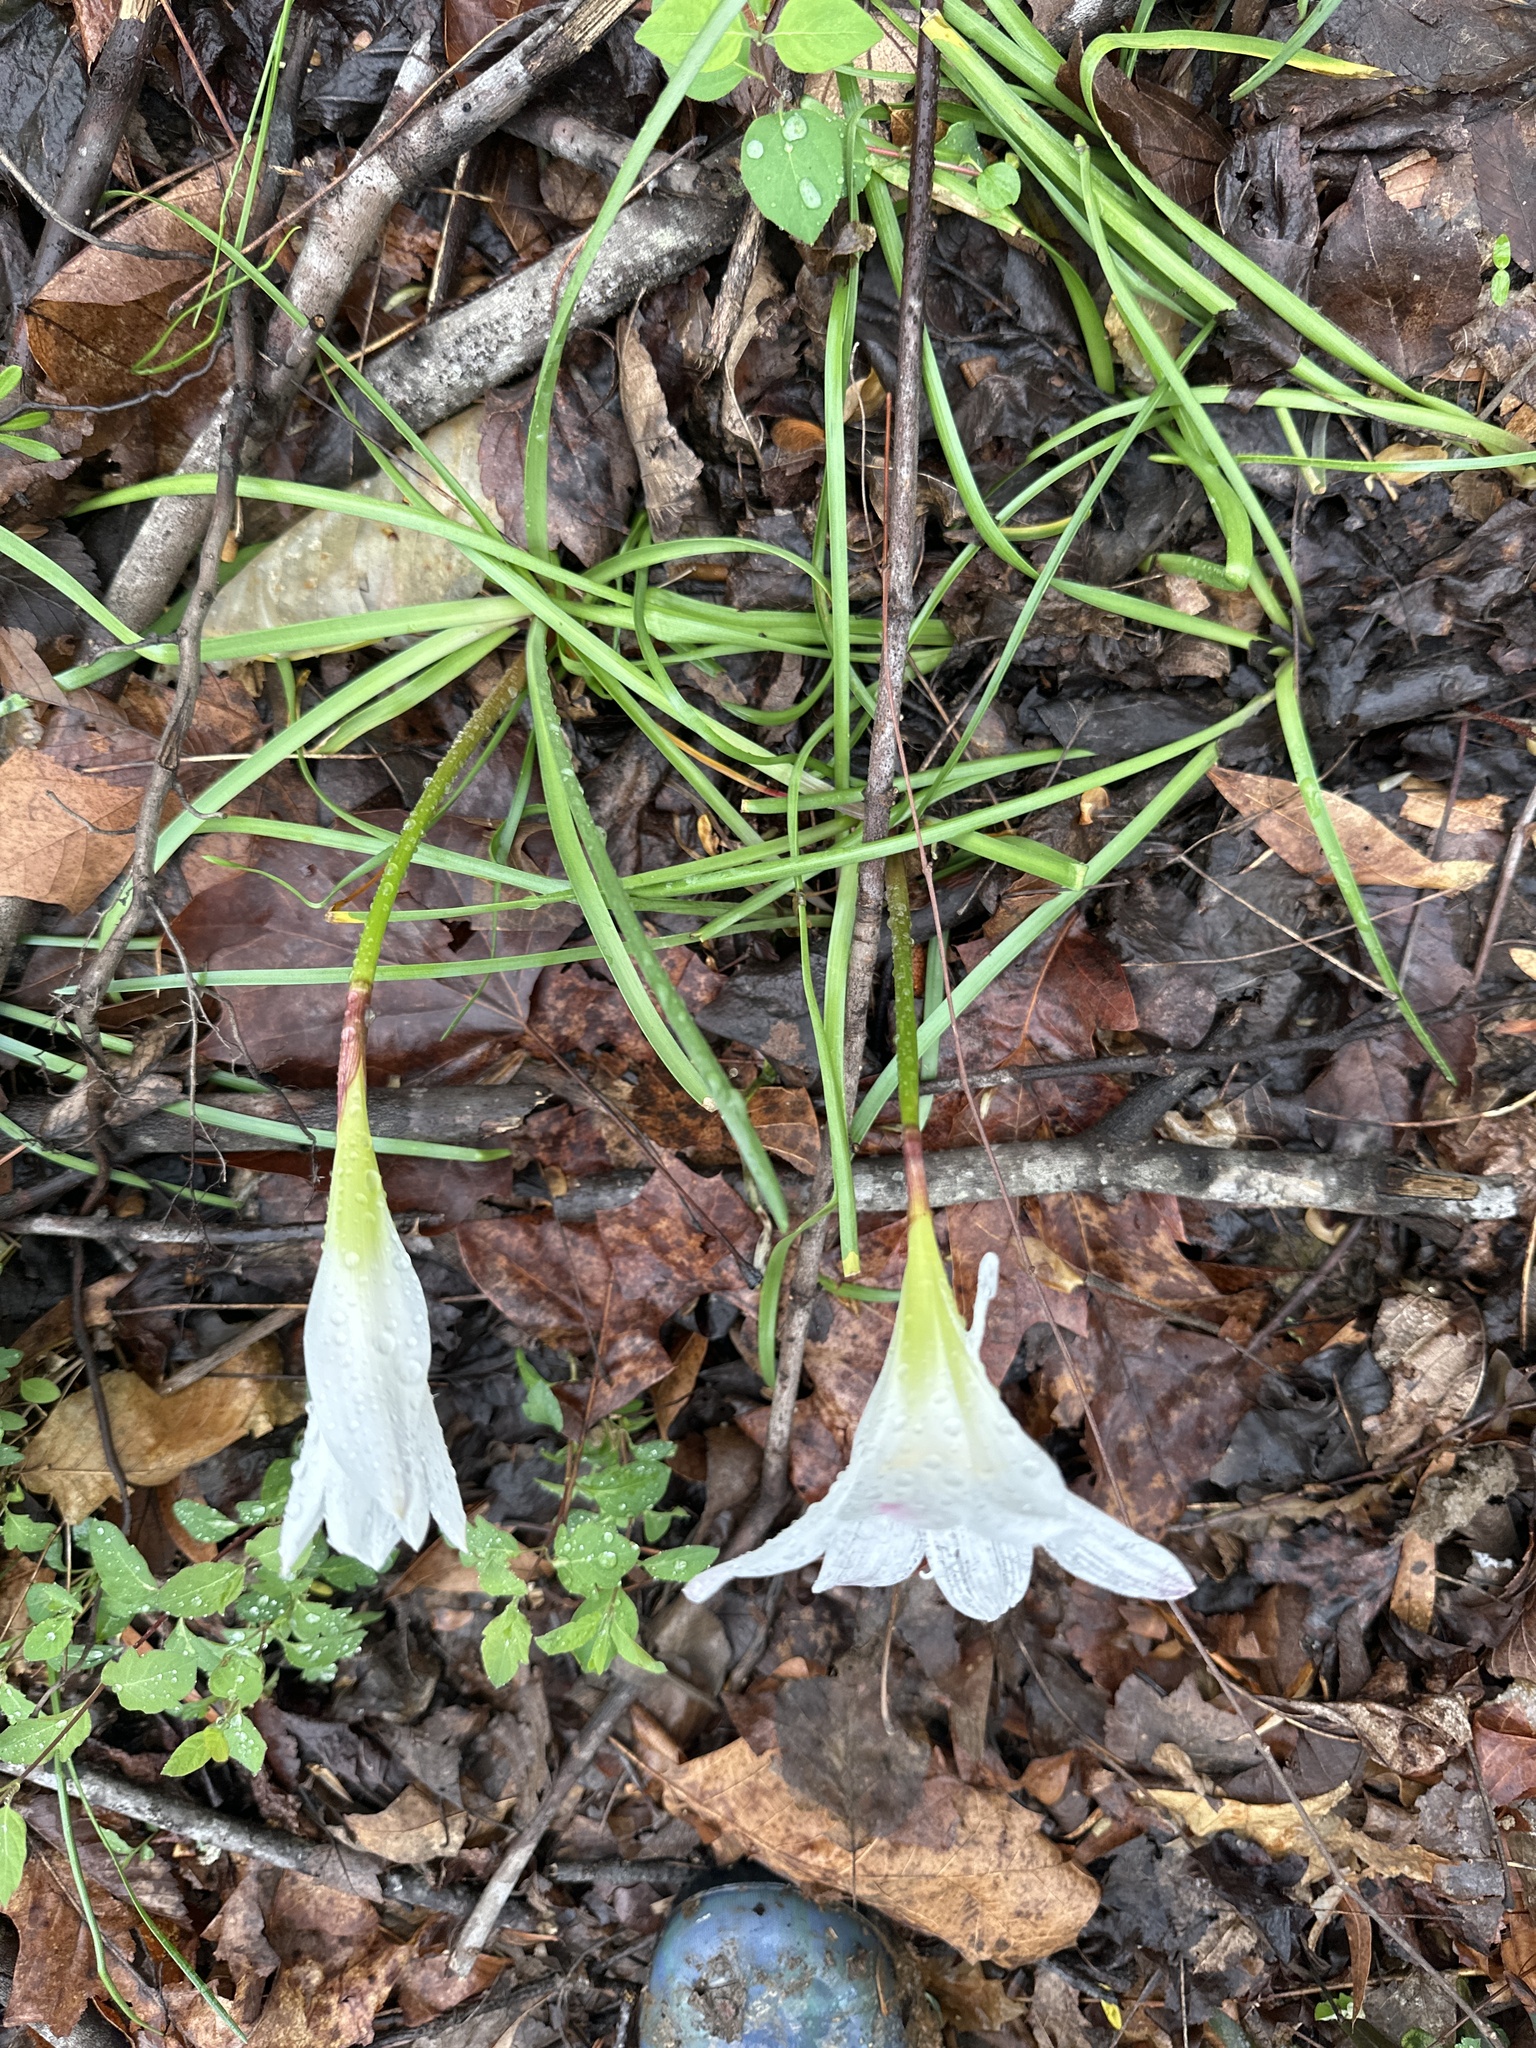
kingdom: Plantae
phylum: Tracheophyta
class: Liliopsida
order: Asparagales
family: Amaryllidaceae
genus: Zephyranthes
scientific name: Zephyranthes atamasco
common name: Atamasco lily
